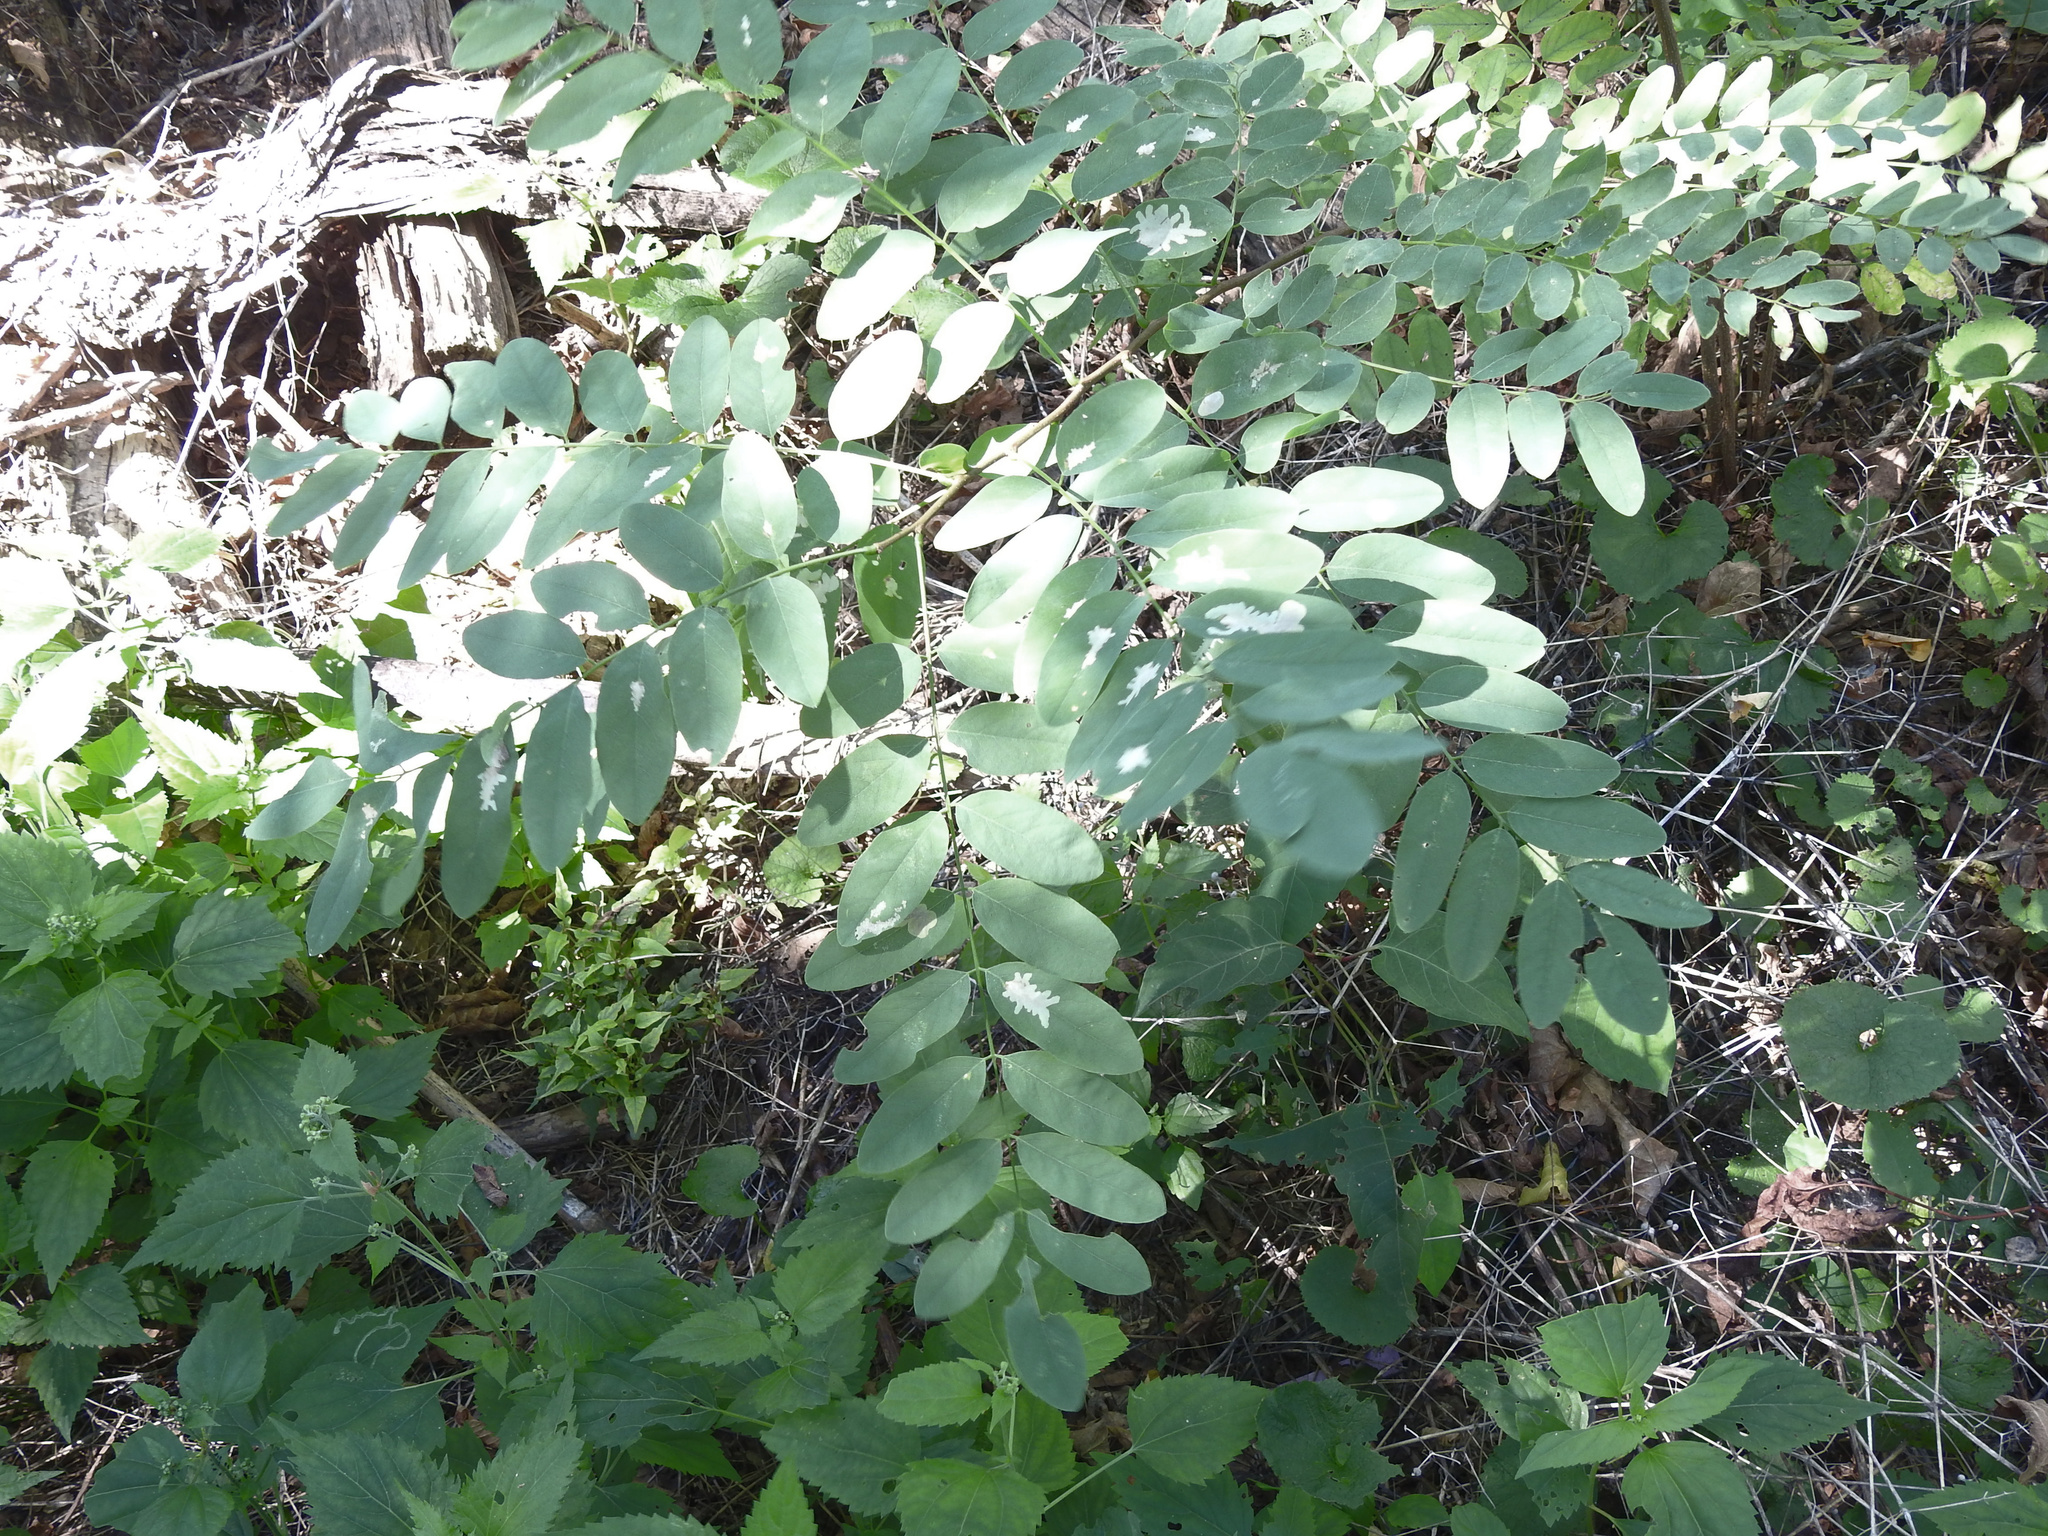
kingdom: Plantae
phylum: Tracheophyta
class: Magnoliopsida
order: Fabales
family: Fabaceae
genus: Robinia
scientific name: Robinia pseudoacacia
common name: Black locust
